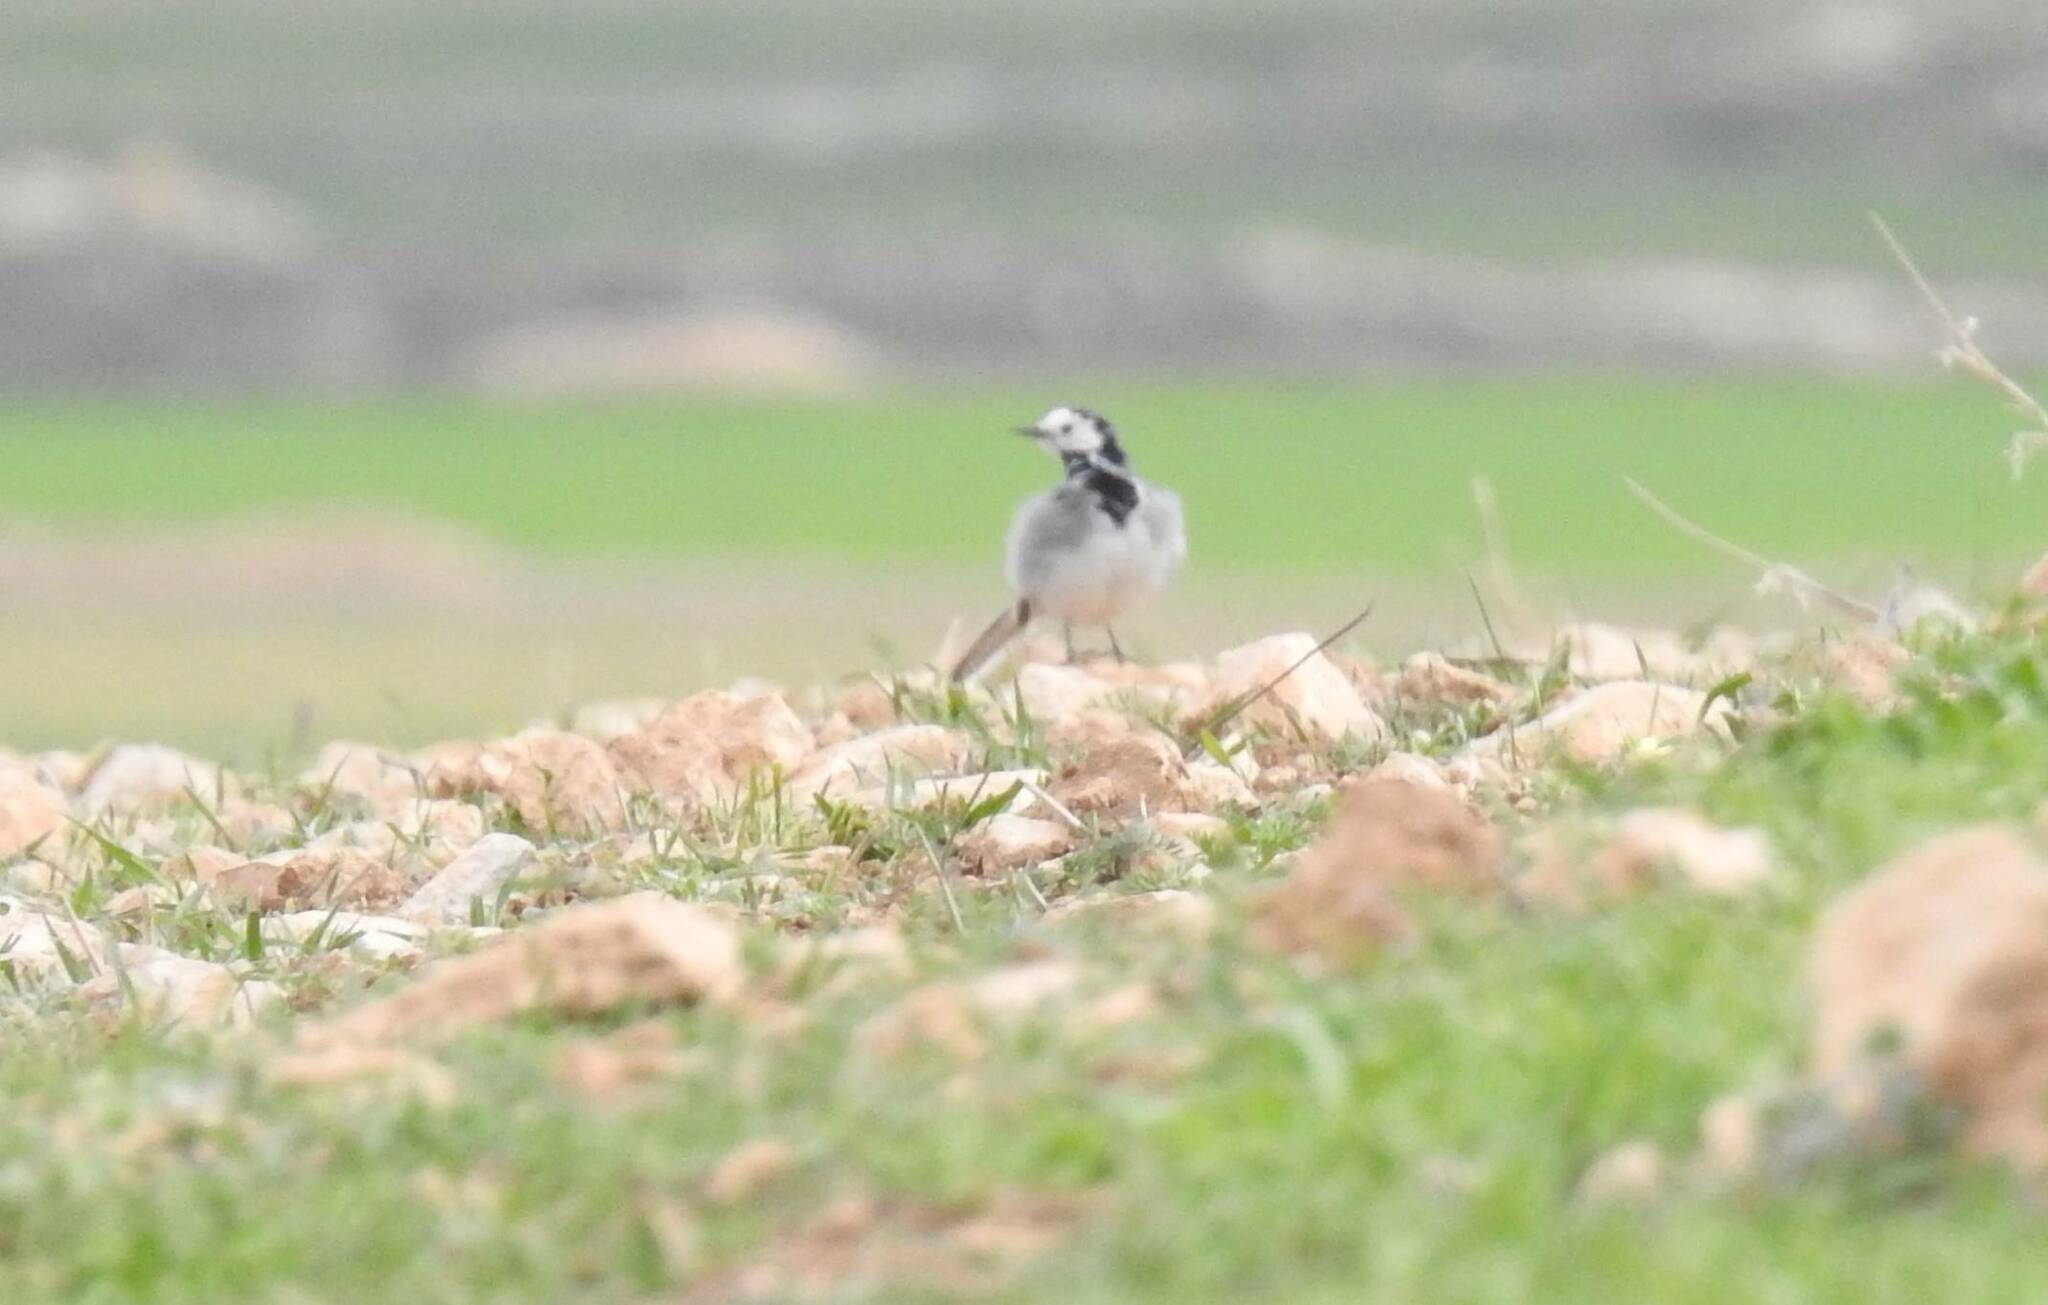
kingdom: Animalia
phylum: Chordata
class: Aves
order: Passeriformes
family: Motacillidae
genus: Motacilla
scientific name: Motacilla alba
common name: White wagtail
